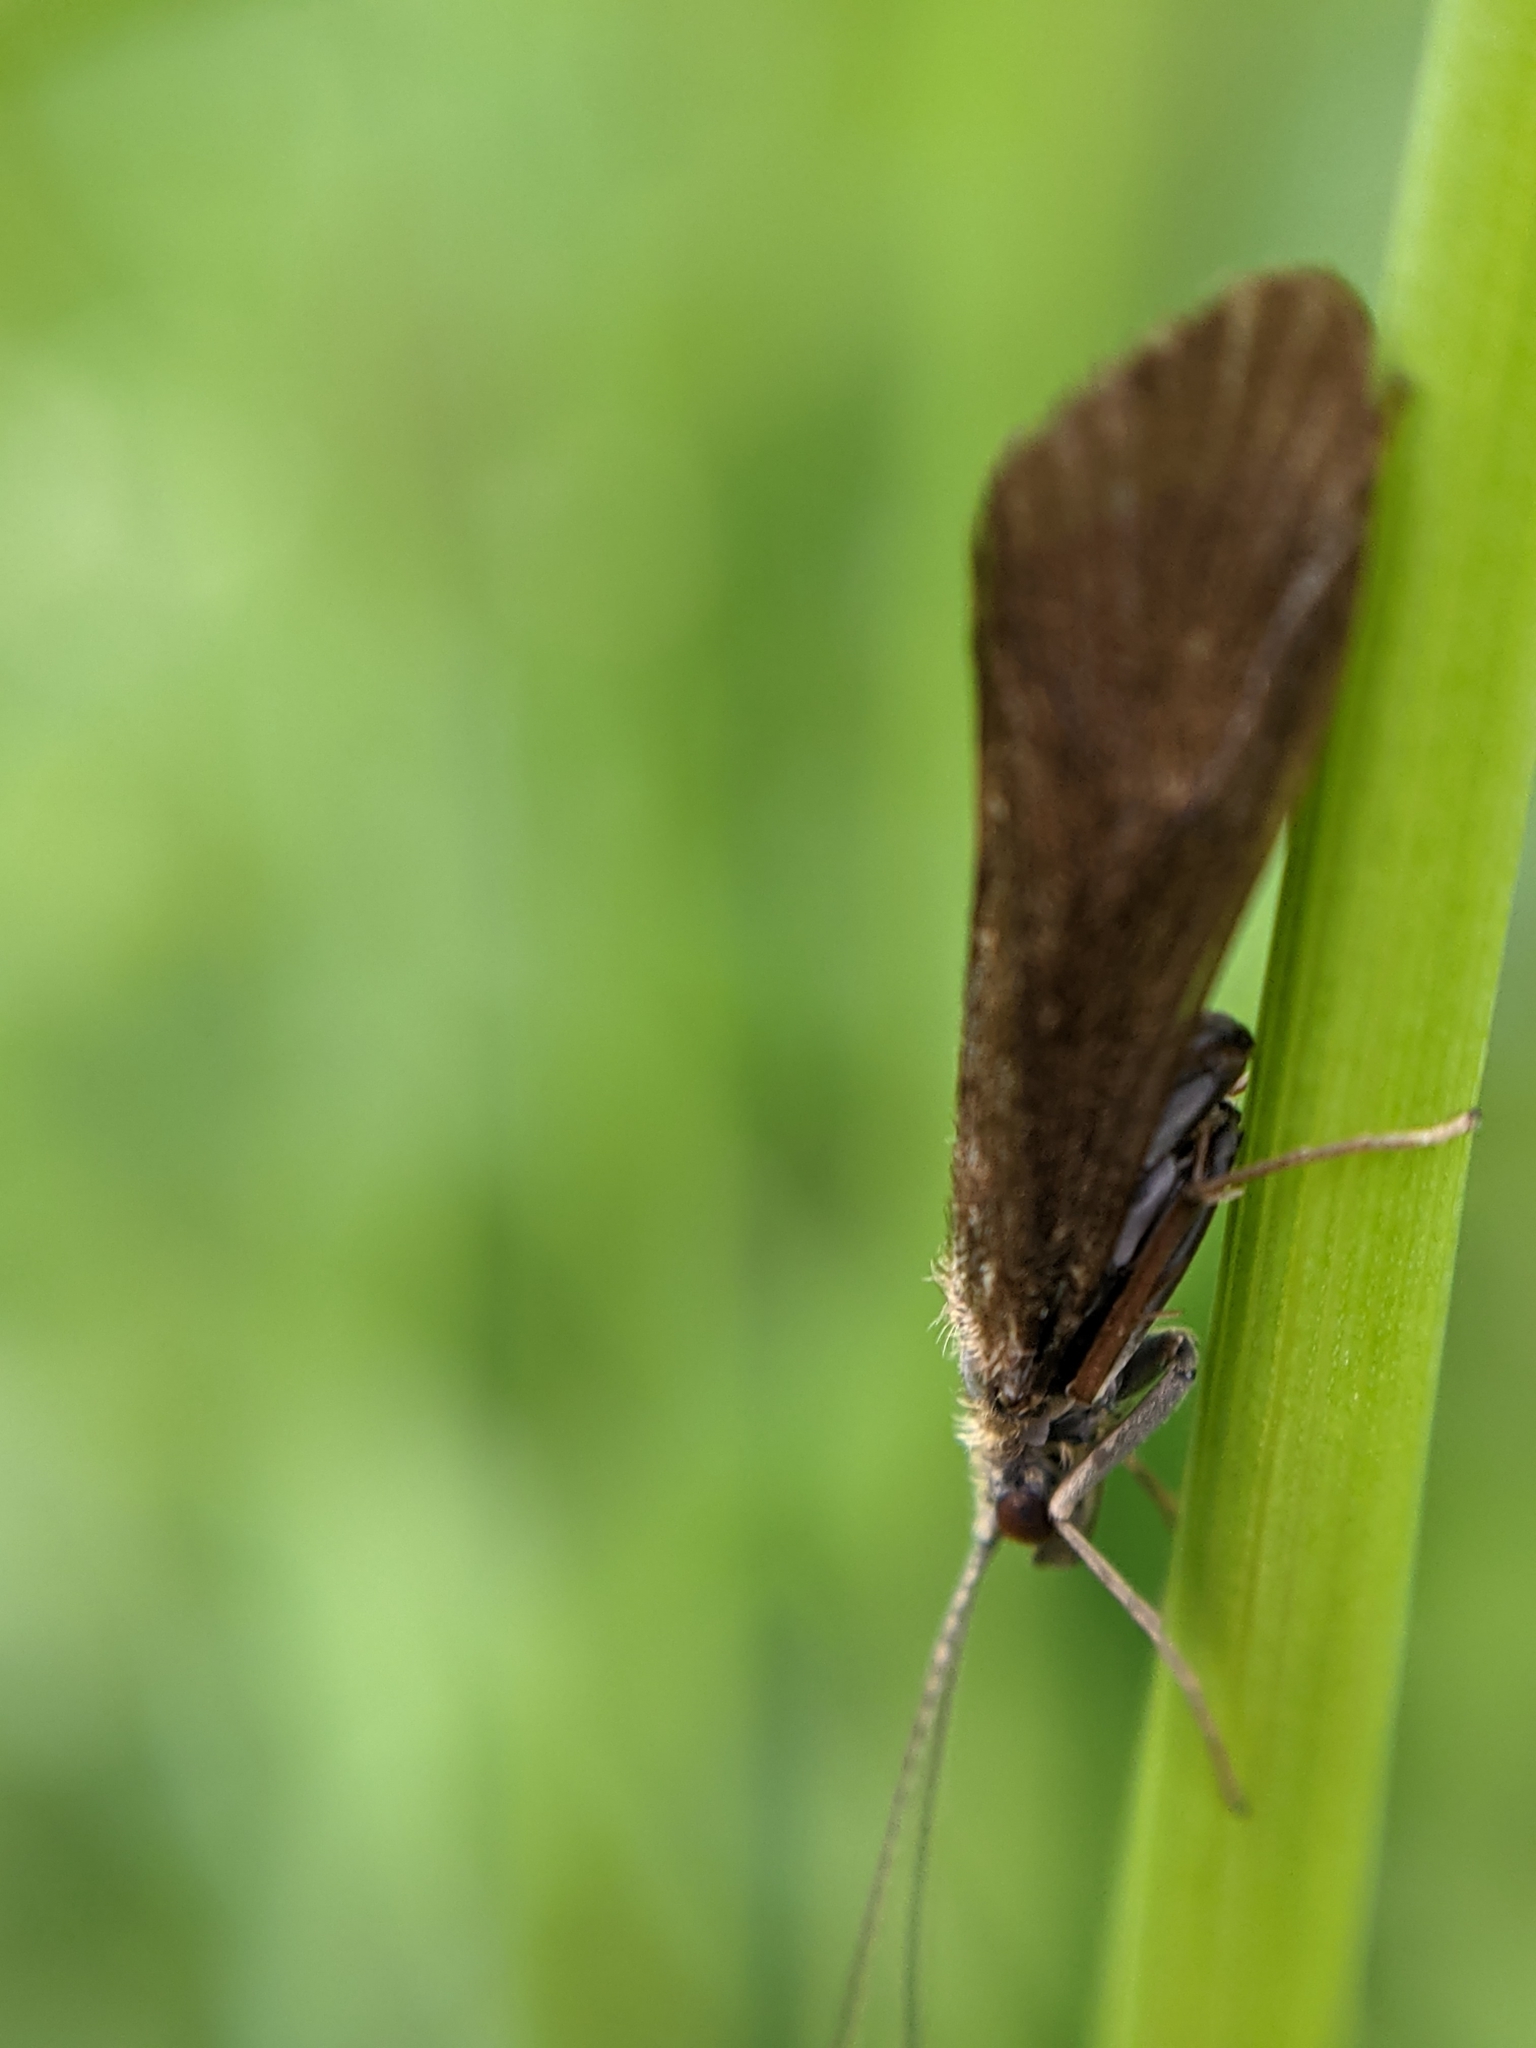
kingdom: Animalia
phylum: Arthropoda
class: Insecta
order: Trichoptera
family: Hydropsychidae
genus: Hydropsyche
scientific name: Hydropsyche angustipennis
